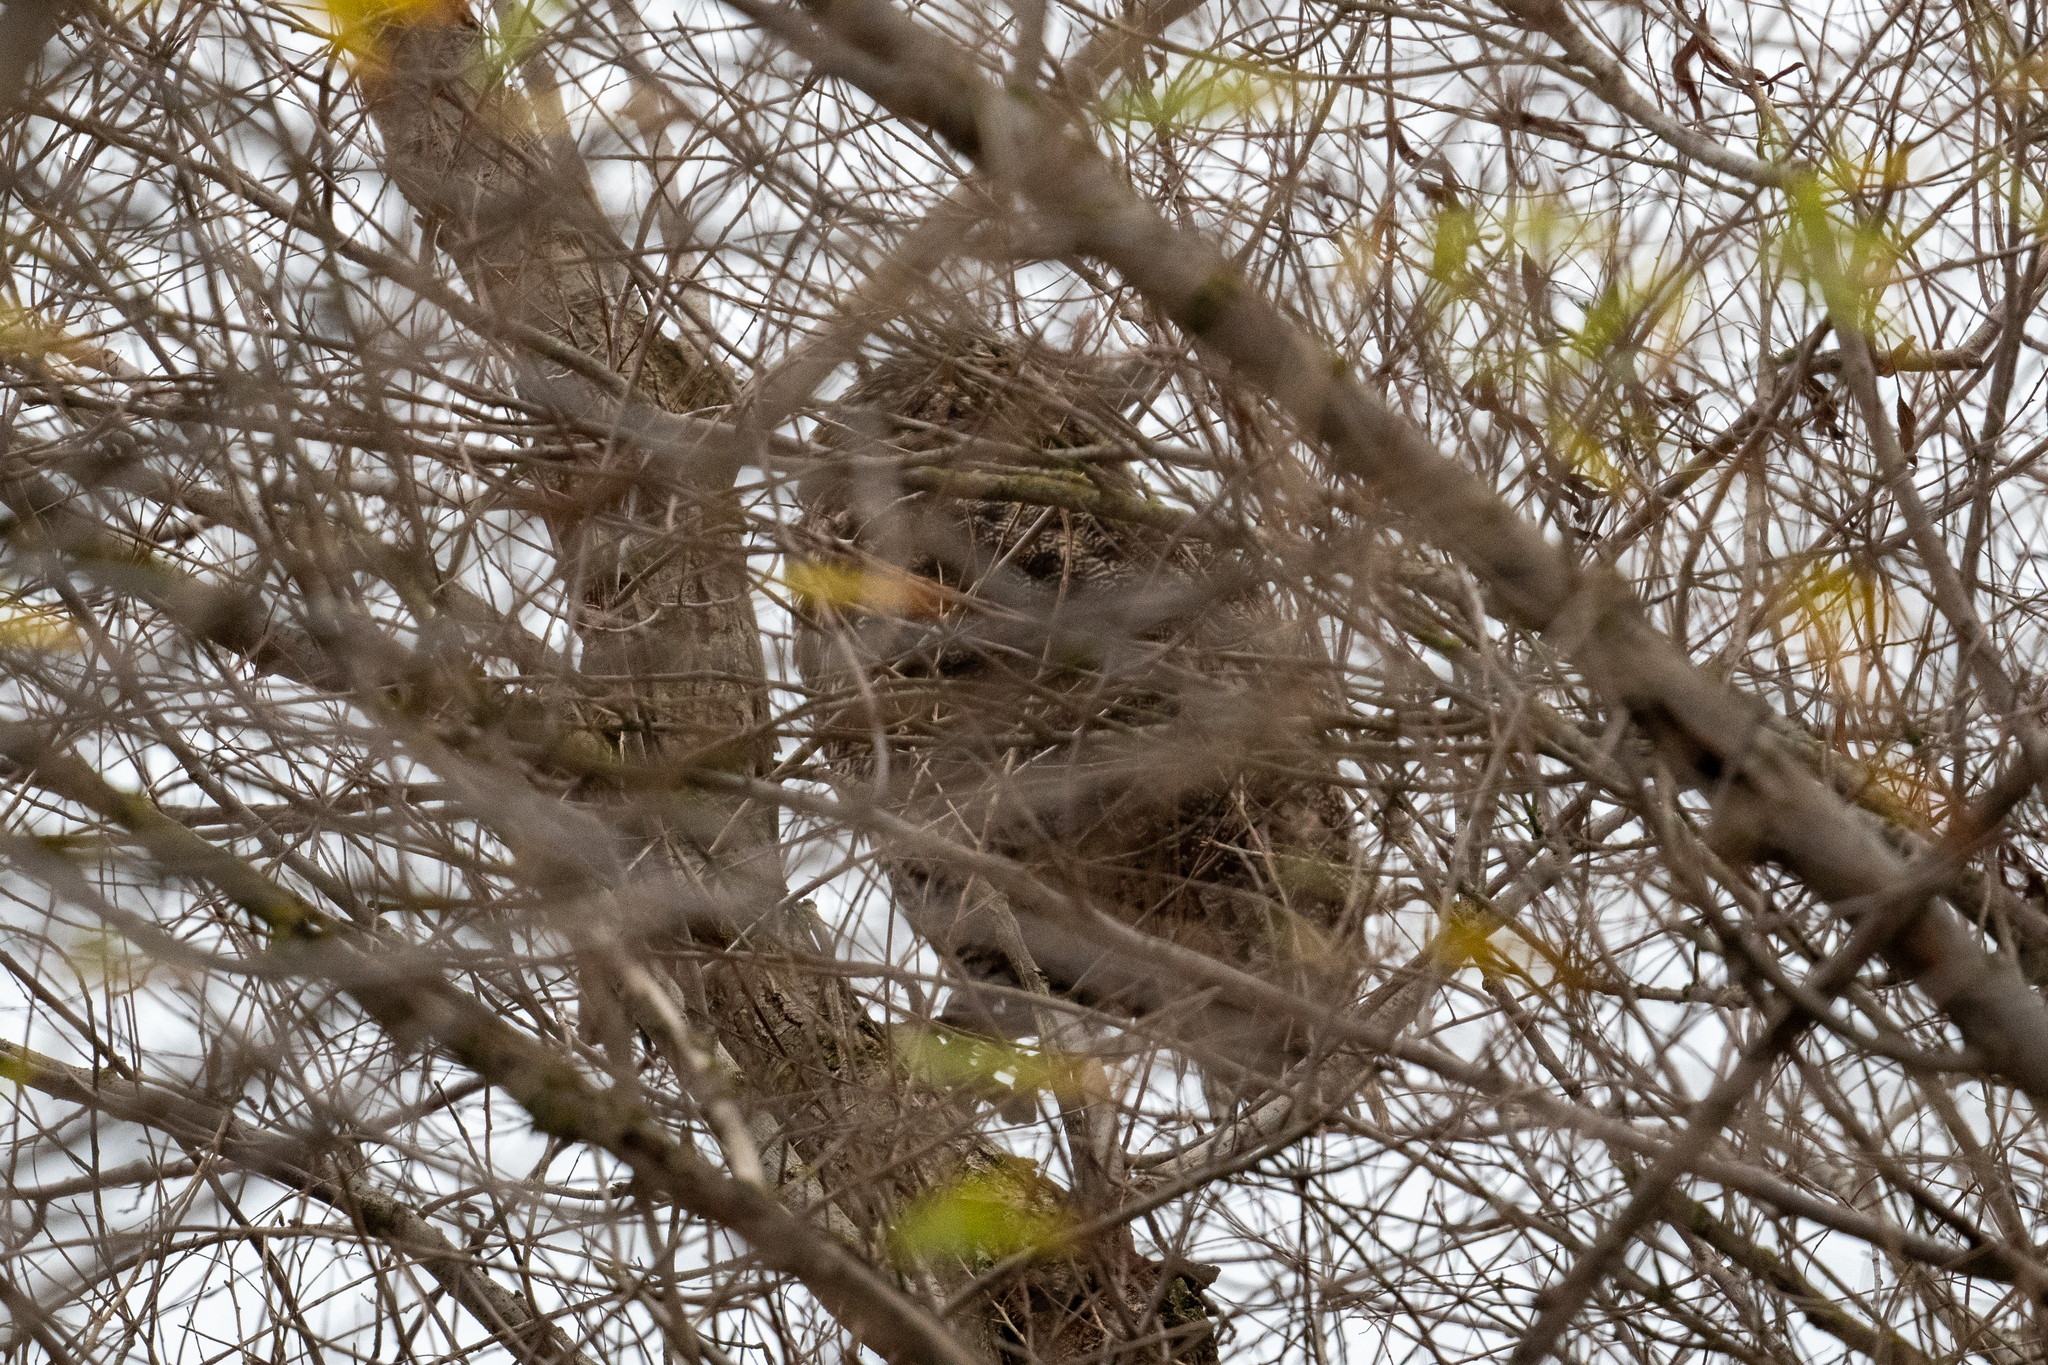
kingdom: Animalia
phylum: Chordata
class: Aves
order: Strigiformes
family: Strigidae
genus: Bubo
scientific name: Bubo virginianus
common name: Great horned owl
